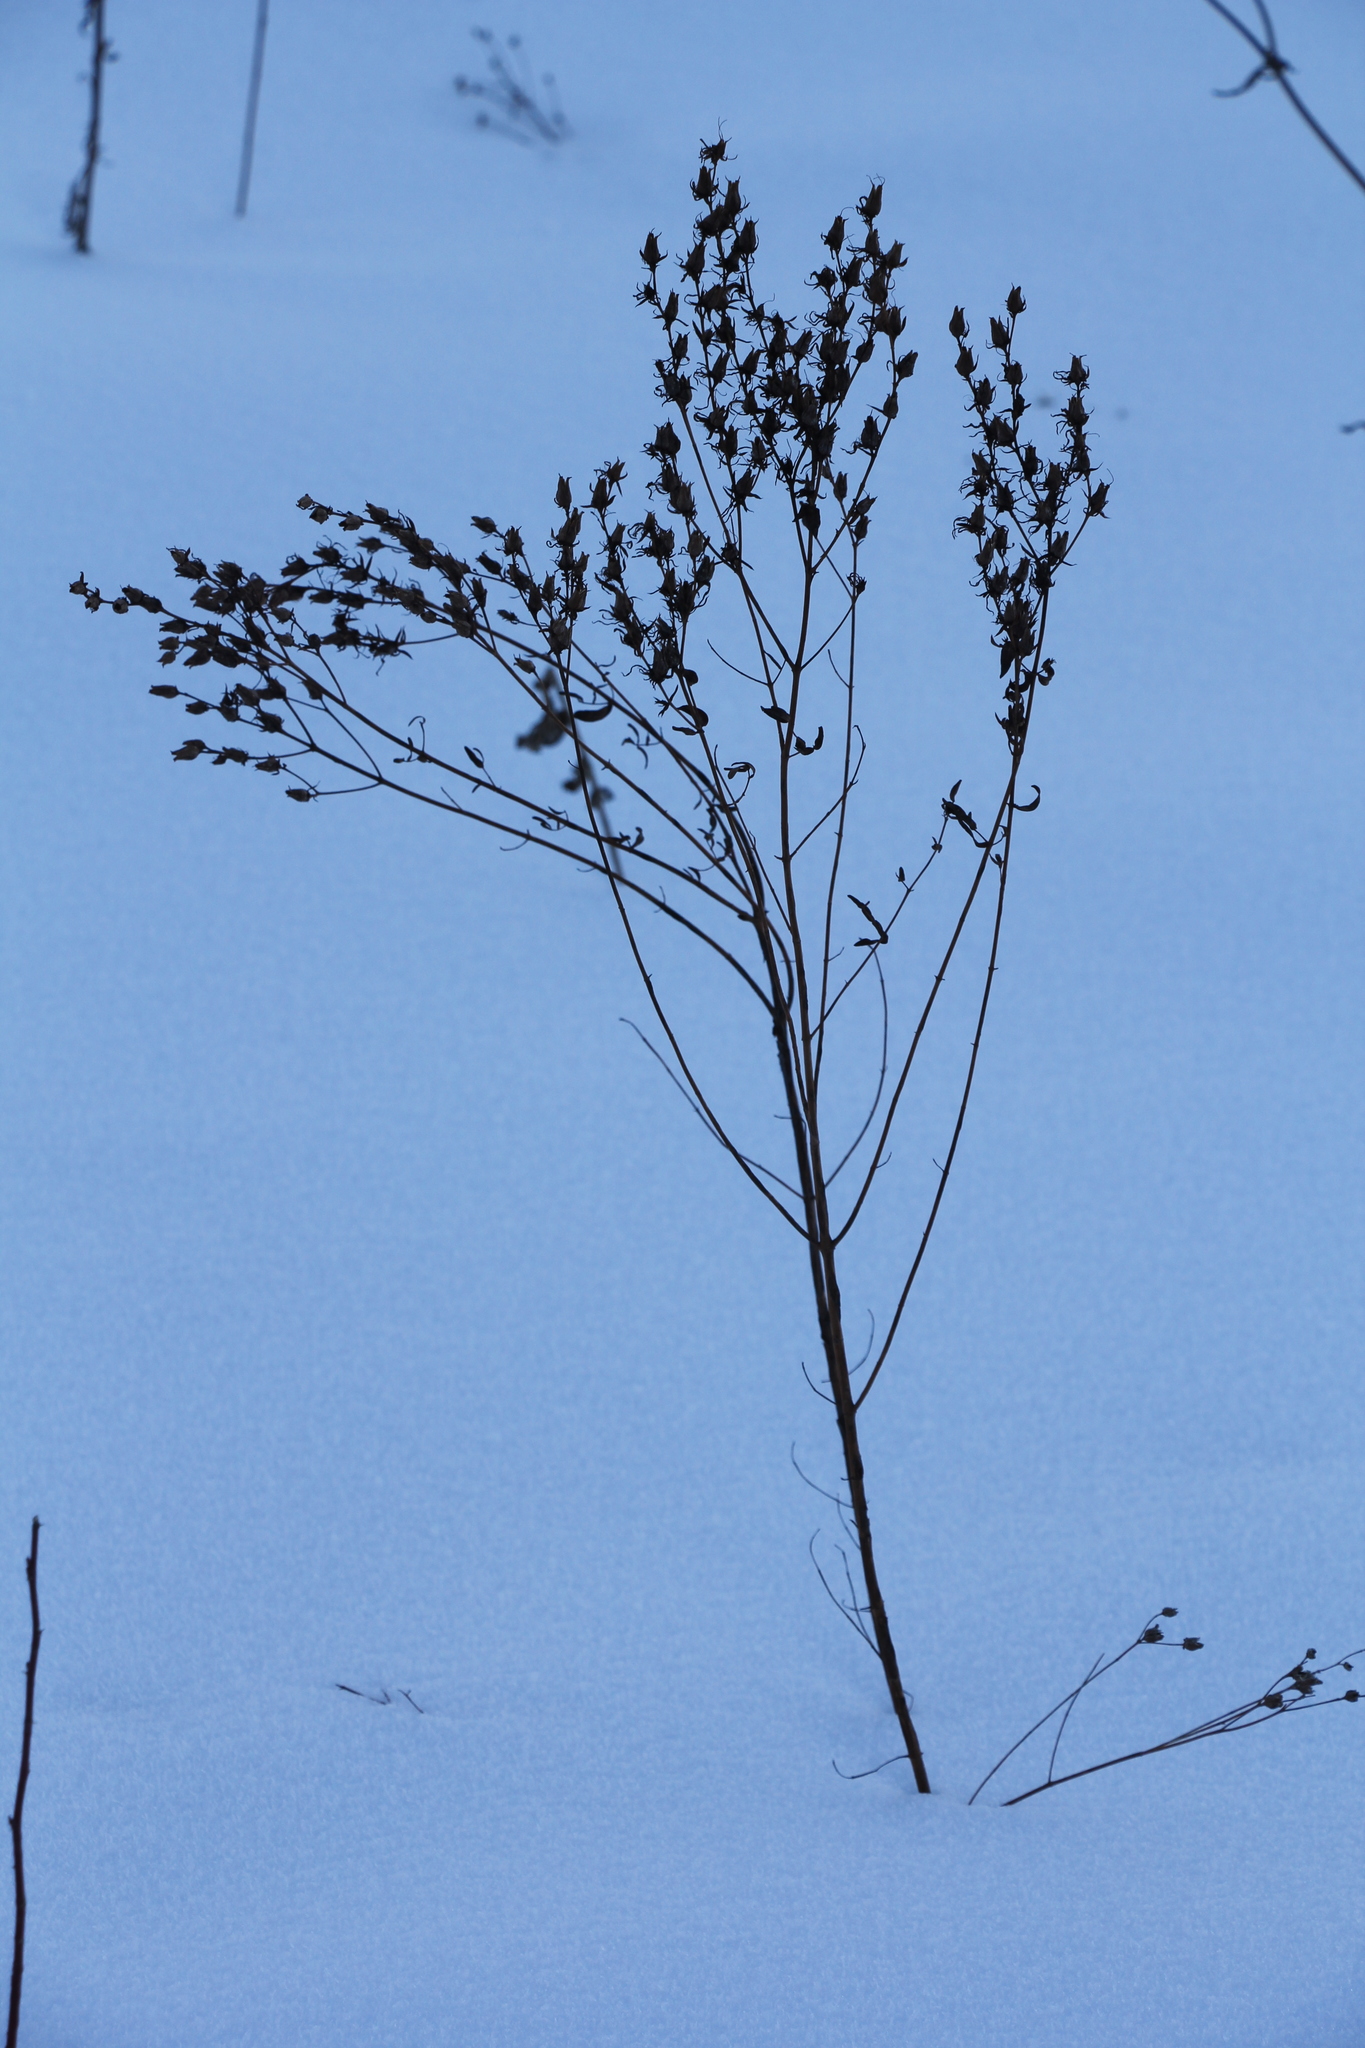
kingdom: Plantae
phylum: Tracheophyta
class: Magnoliopsida
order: Malpighiales
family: Hypericaceae
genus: Hypericum
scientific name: Hypericum perforatum
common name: Common st. johnswort
